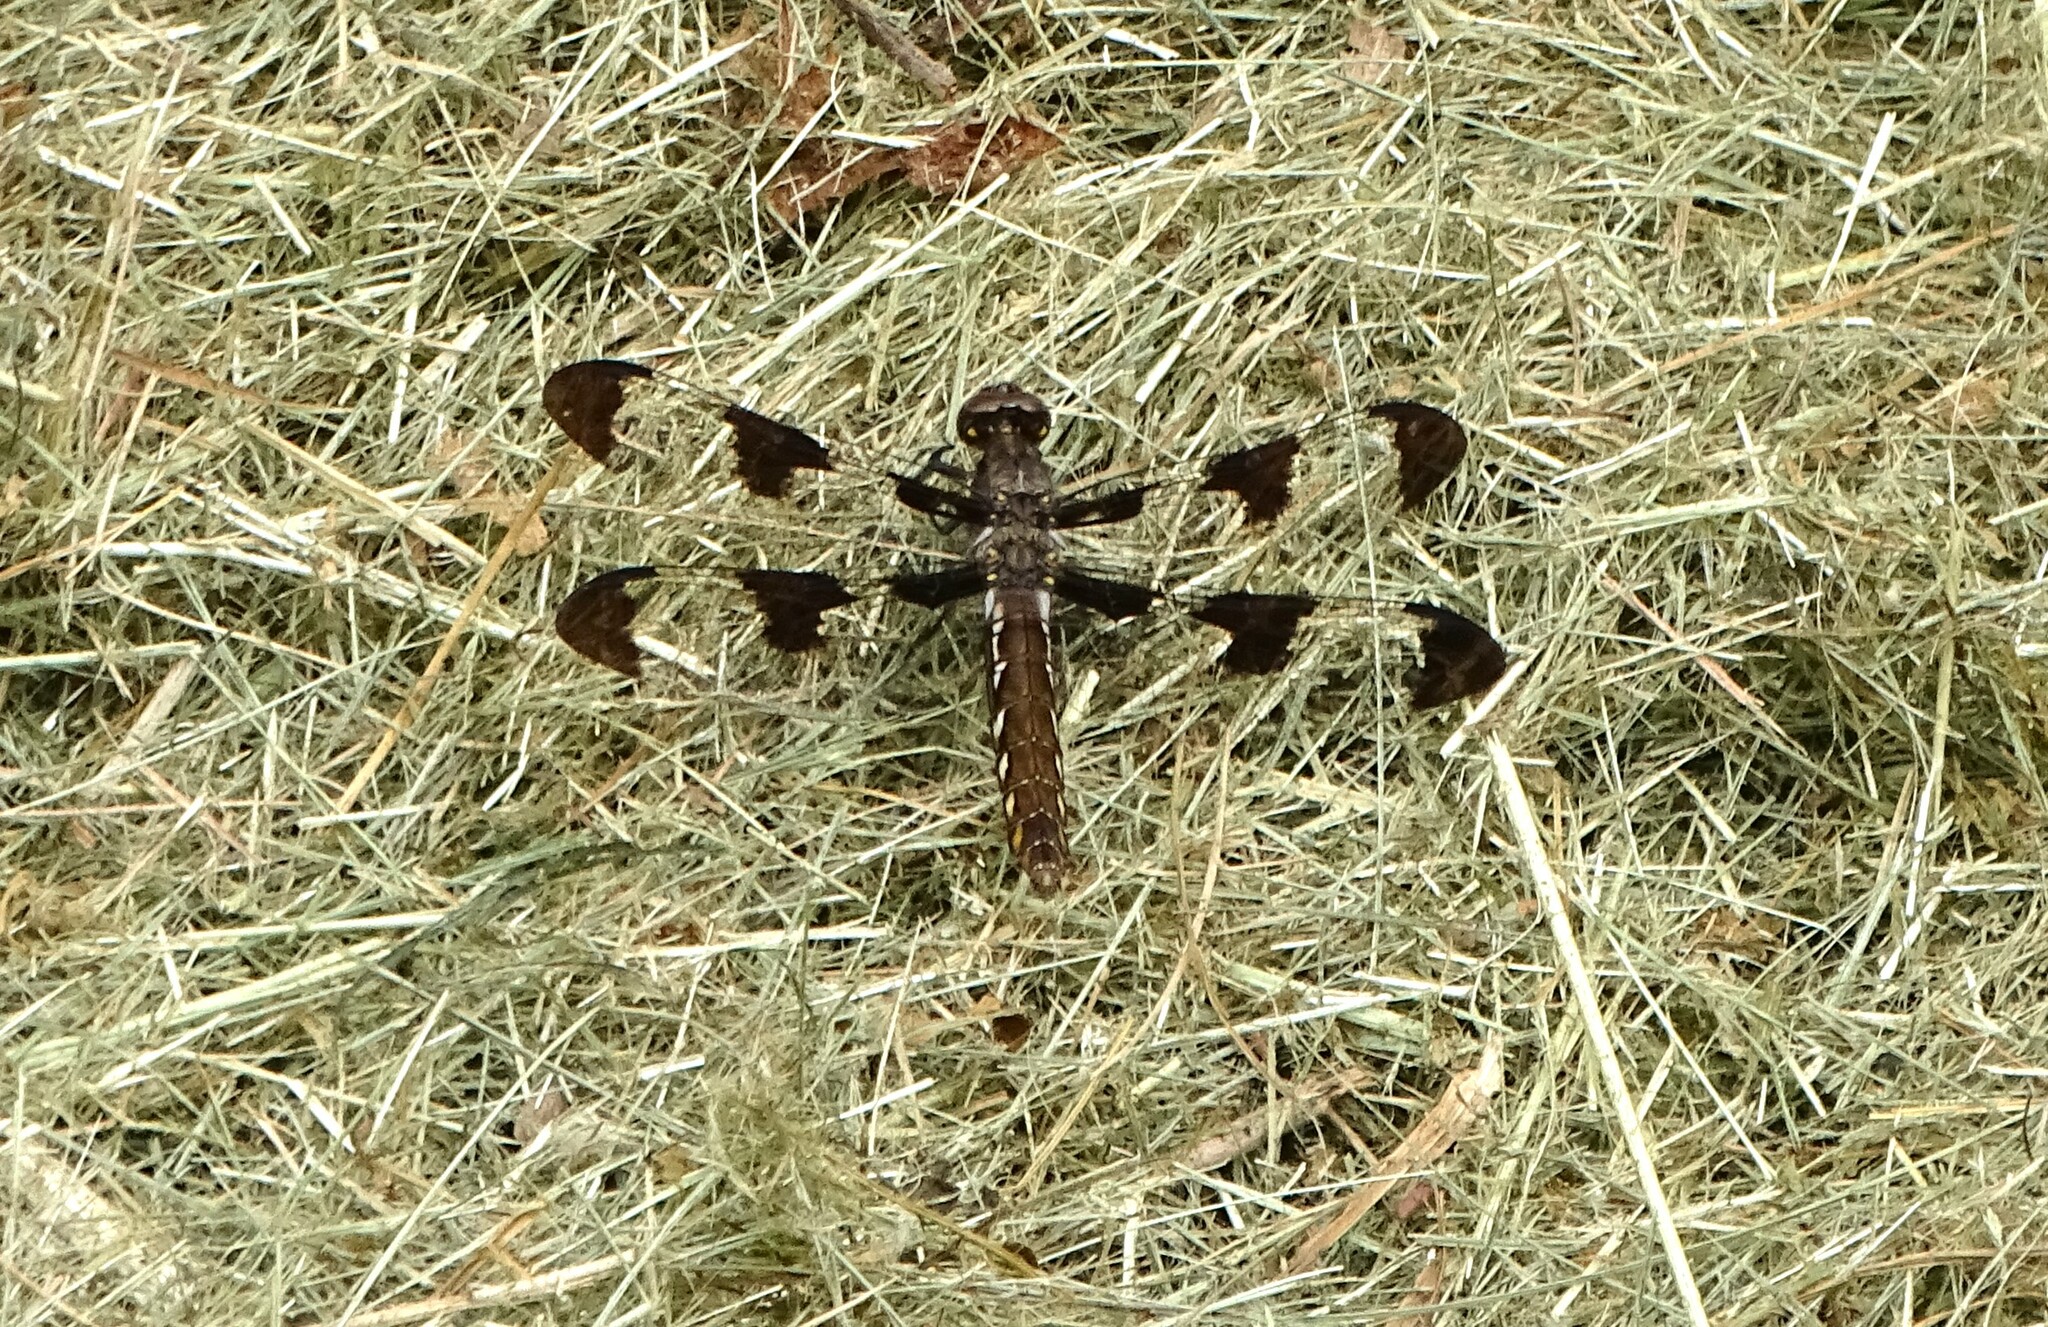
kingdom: Animalia
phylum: Arthropoda
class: Insecta
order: Odonata
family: Libellulidae
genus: Plathemis
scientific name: Plathemis lydia
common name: Common whitetail
